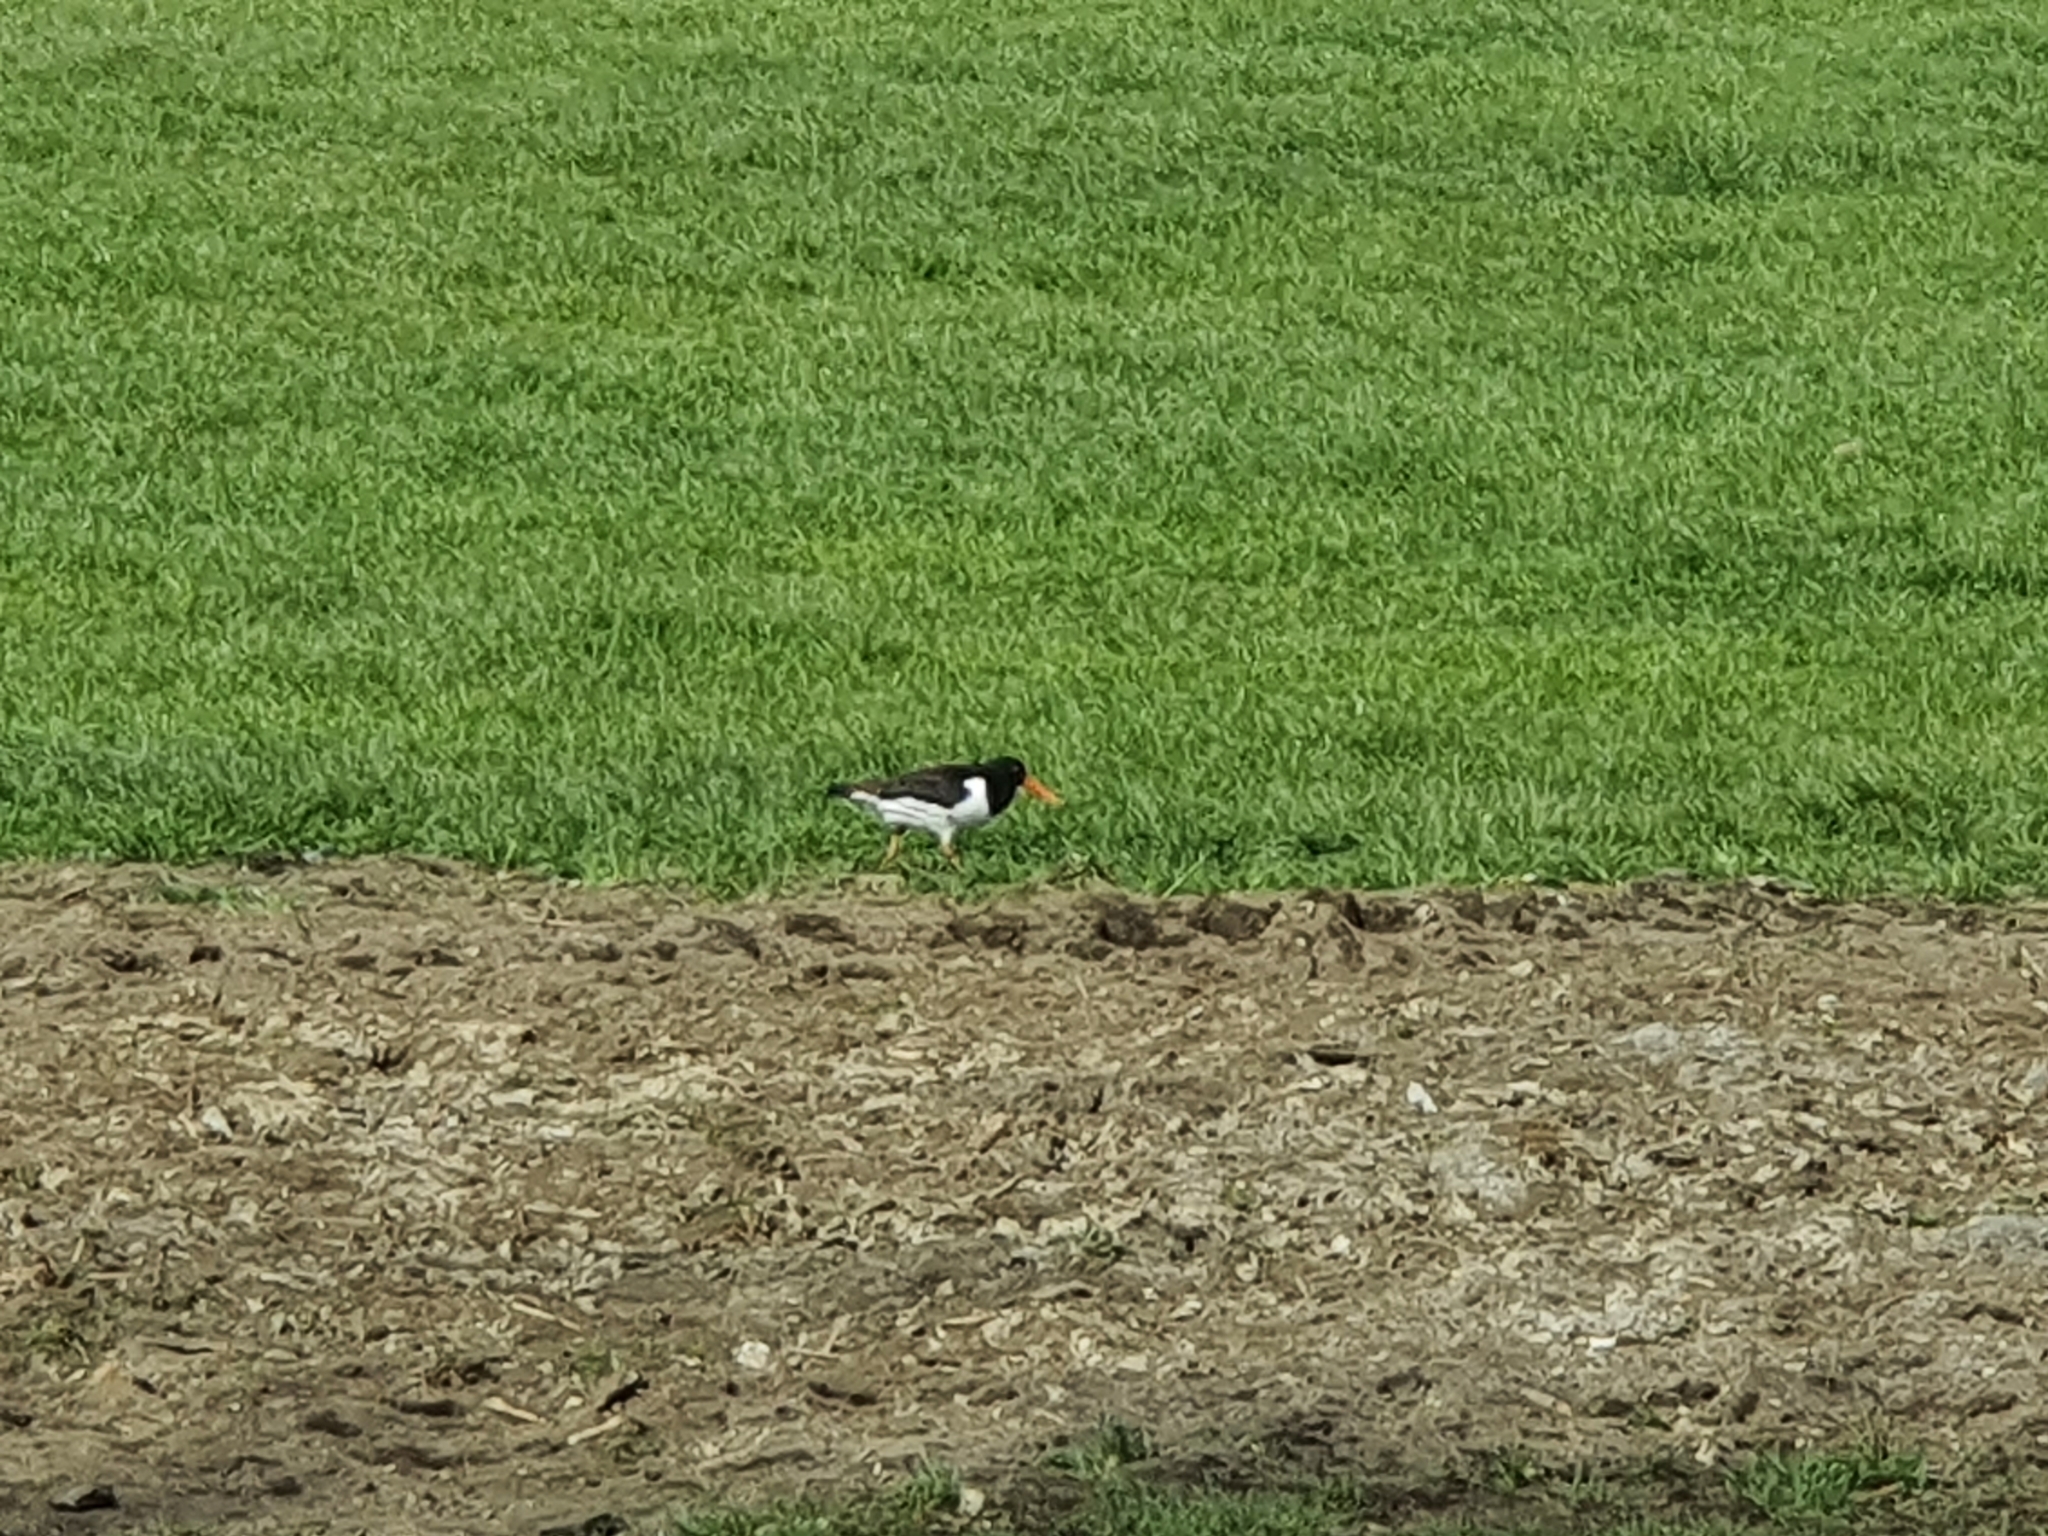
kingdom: Animalia
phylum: Chordata
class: Aves
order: Charadriiformes
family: Haematopodidae
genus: Haematopus
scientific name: Haematopus ostralegus
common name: Eurasian oystercatcher
